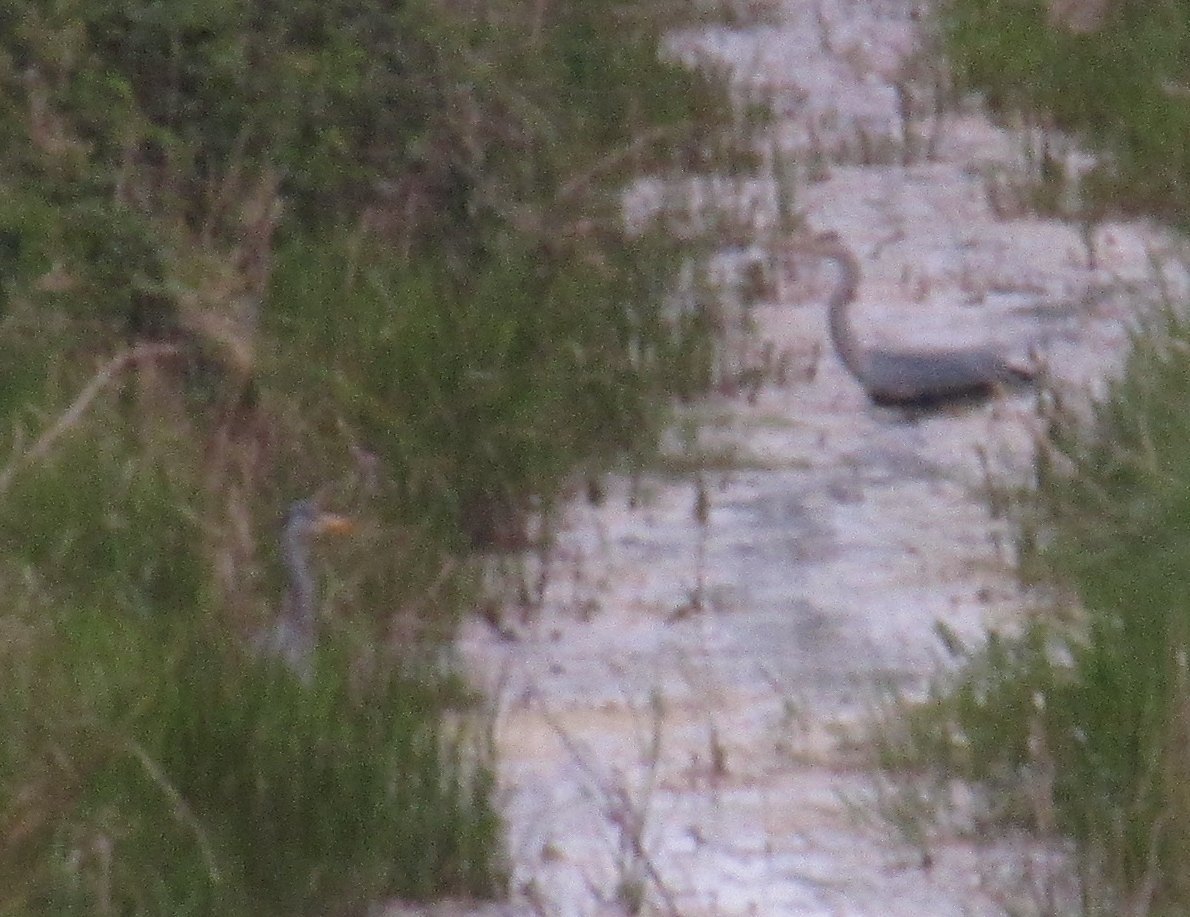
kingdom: Animalia
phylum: Chordata
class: Aves
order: Pelecaniformes
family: Ardeidae
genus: Ardea
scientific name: Ardea cinerea
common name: Grey heron
